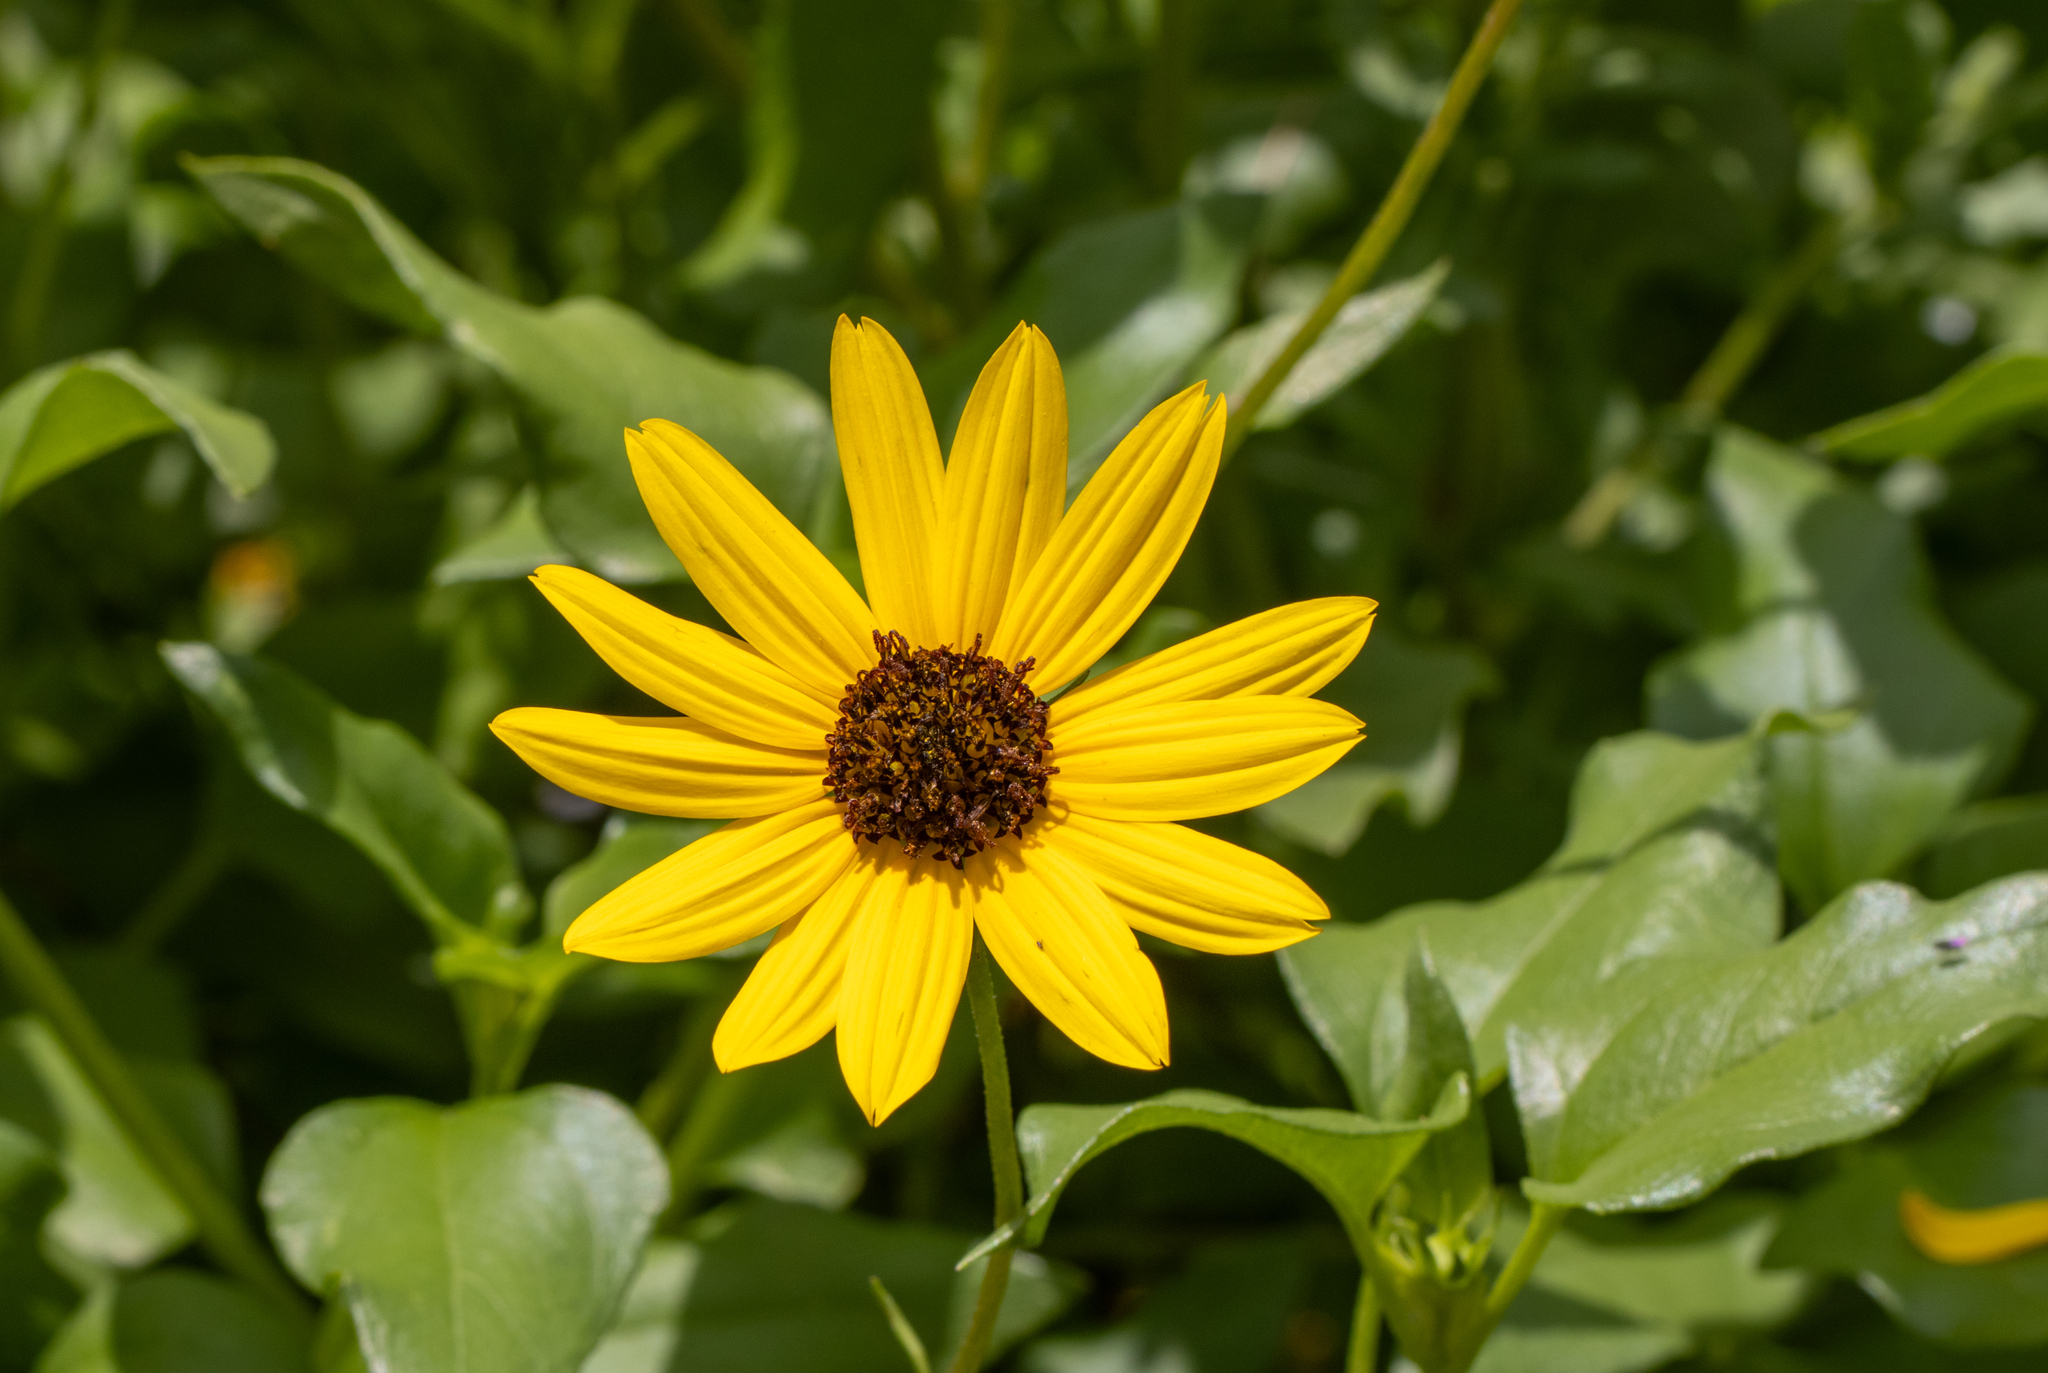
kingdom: Plantae
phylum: Tracheophyta
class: Magnoliopsida
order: Asterales
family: Asteraceae
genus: Helianthus
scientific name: Helianthus debilis
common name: Weak sunflower
